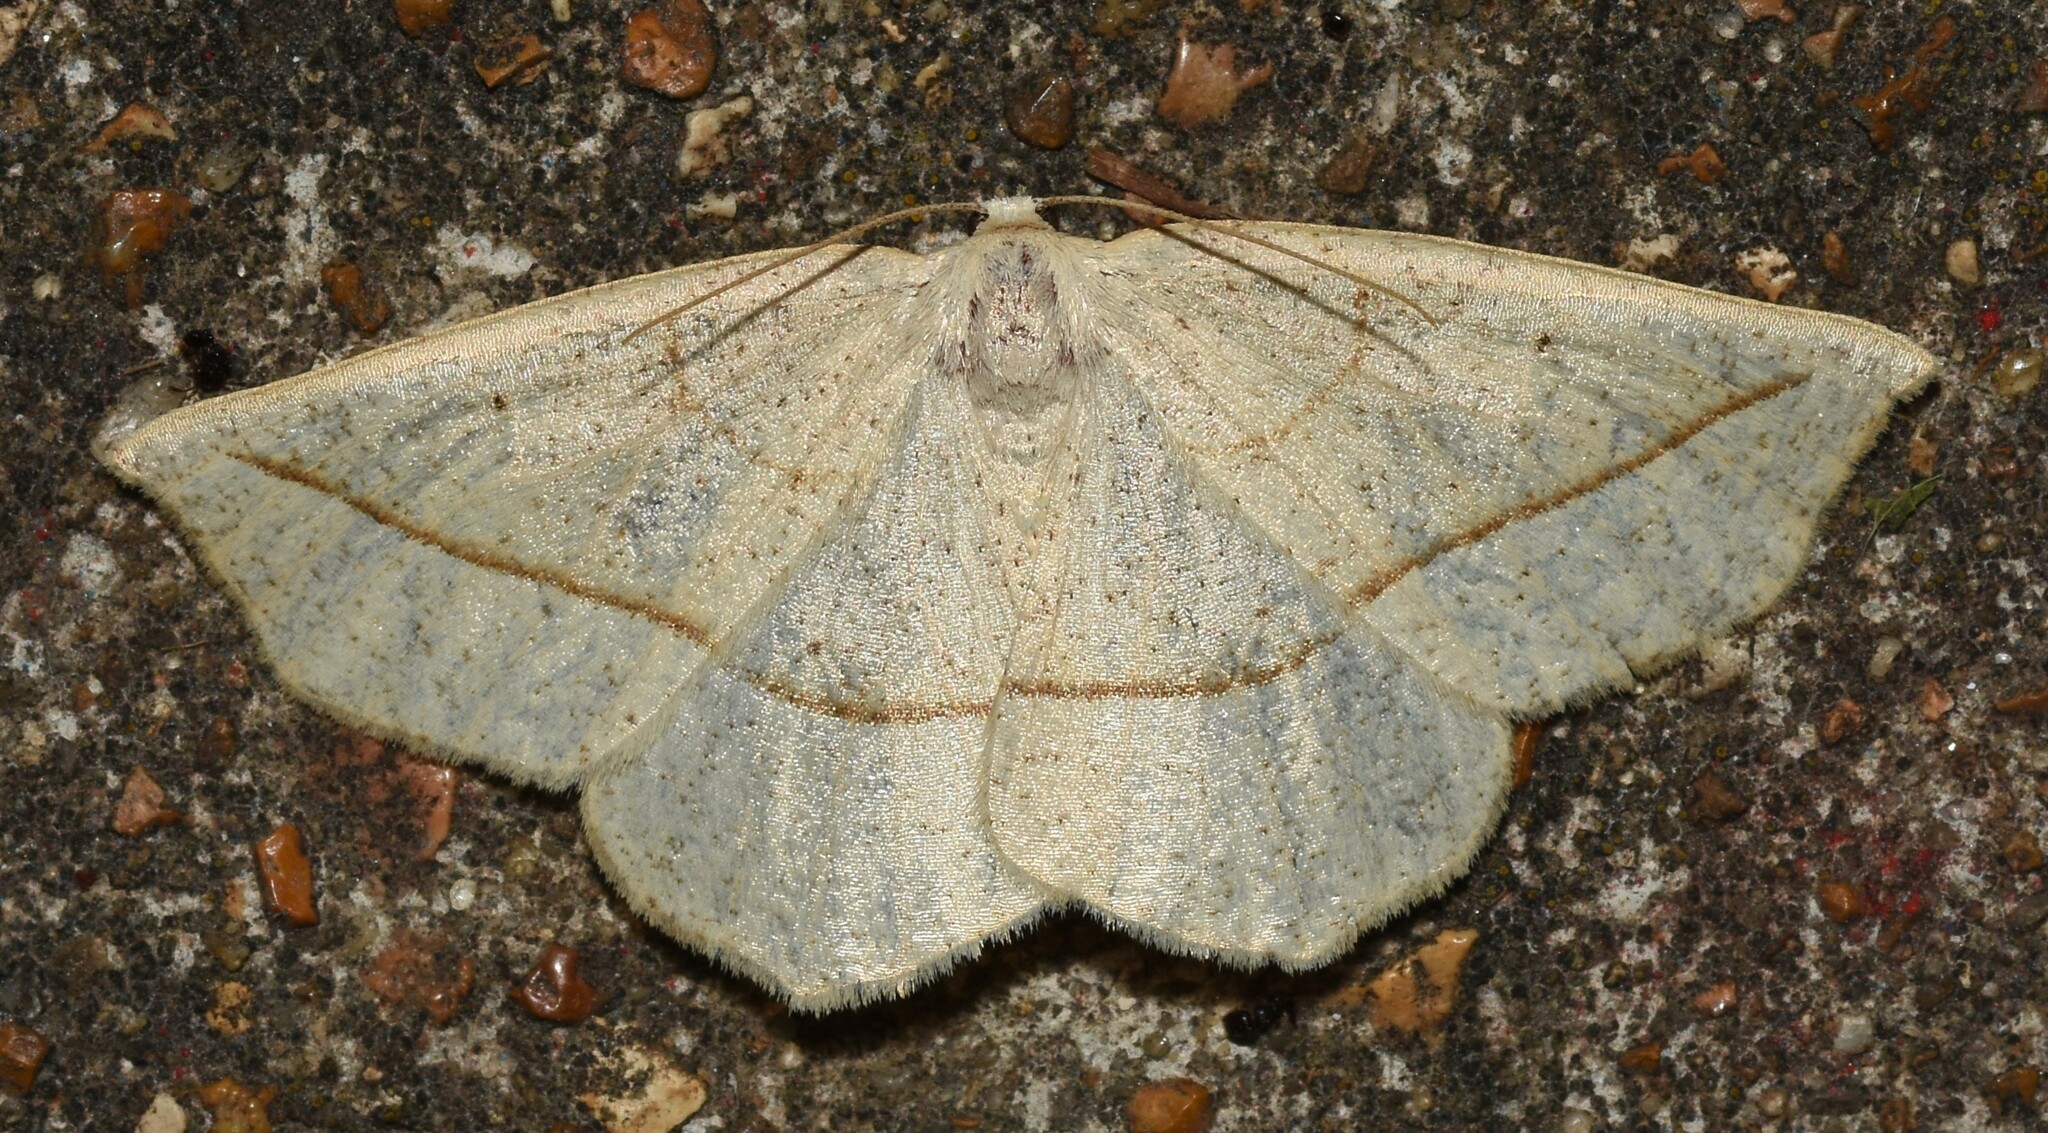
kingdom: Animalia
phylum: Arthropoda
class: Insecta
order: Lepidoptera
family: Geometridae
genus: Eusarca
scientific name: Eusarca confusaria
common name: Confused eusarca
